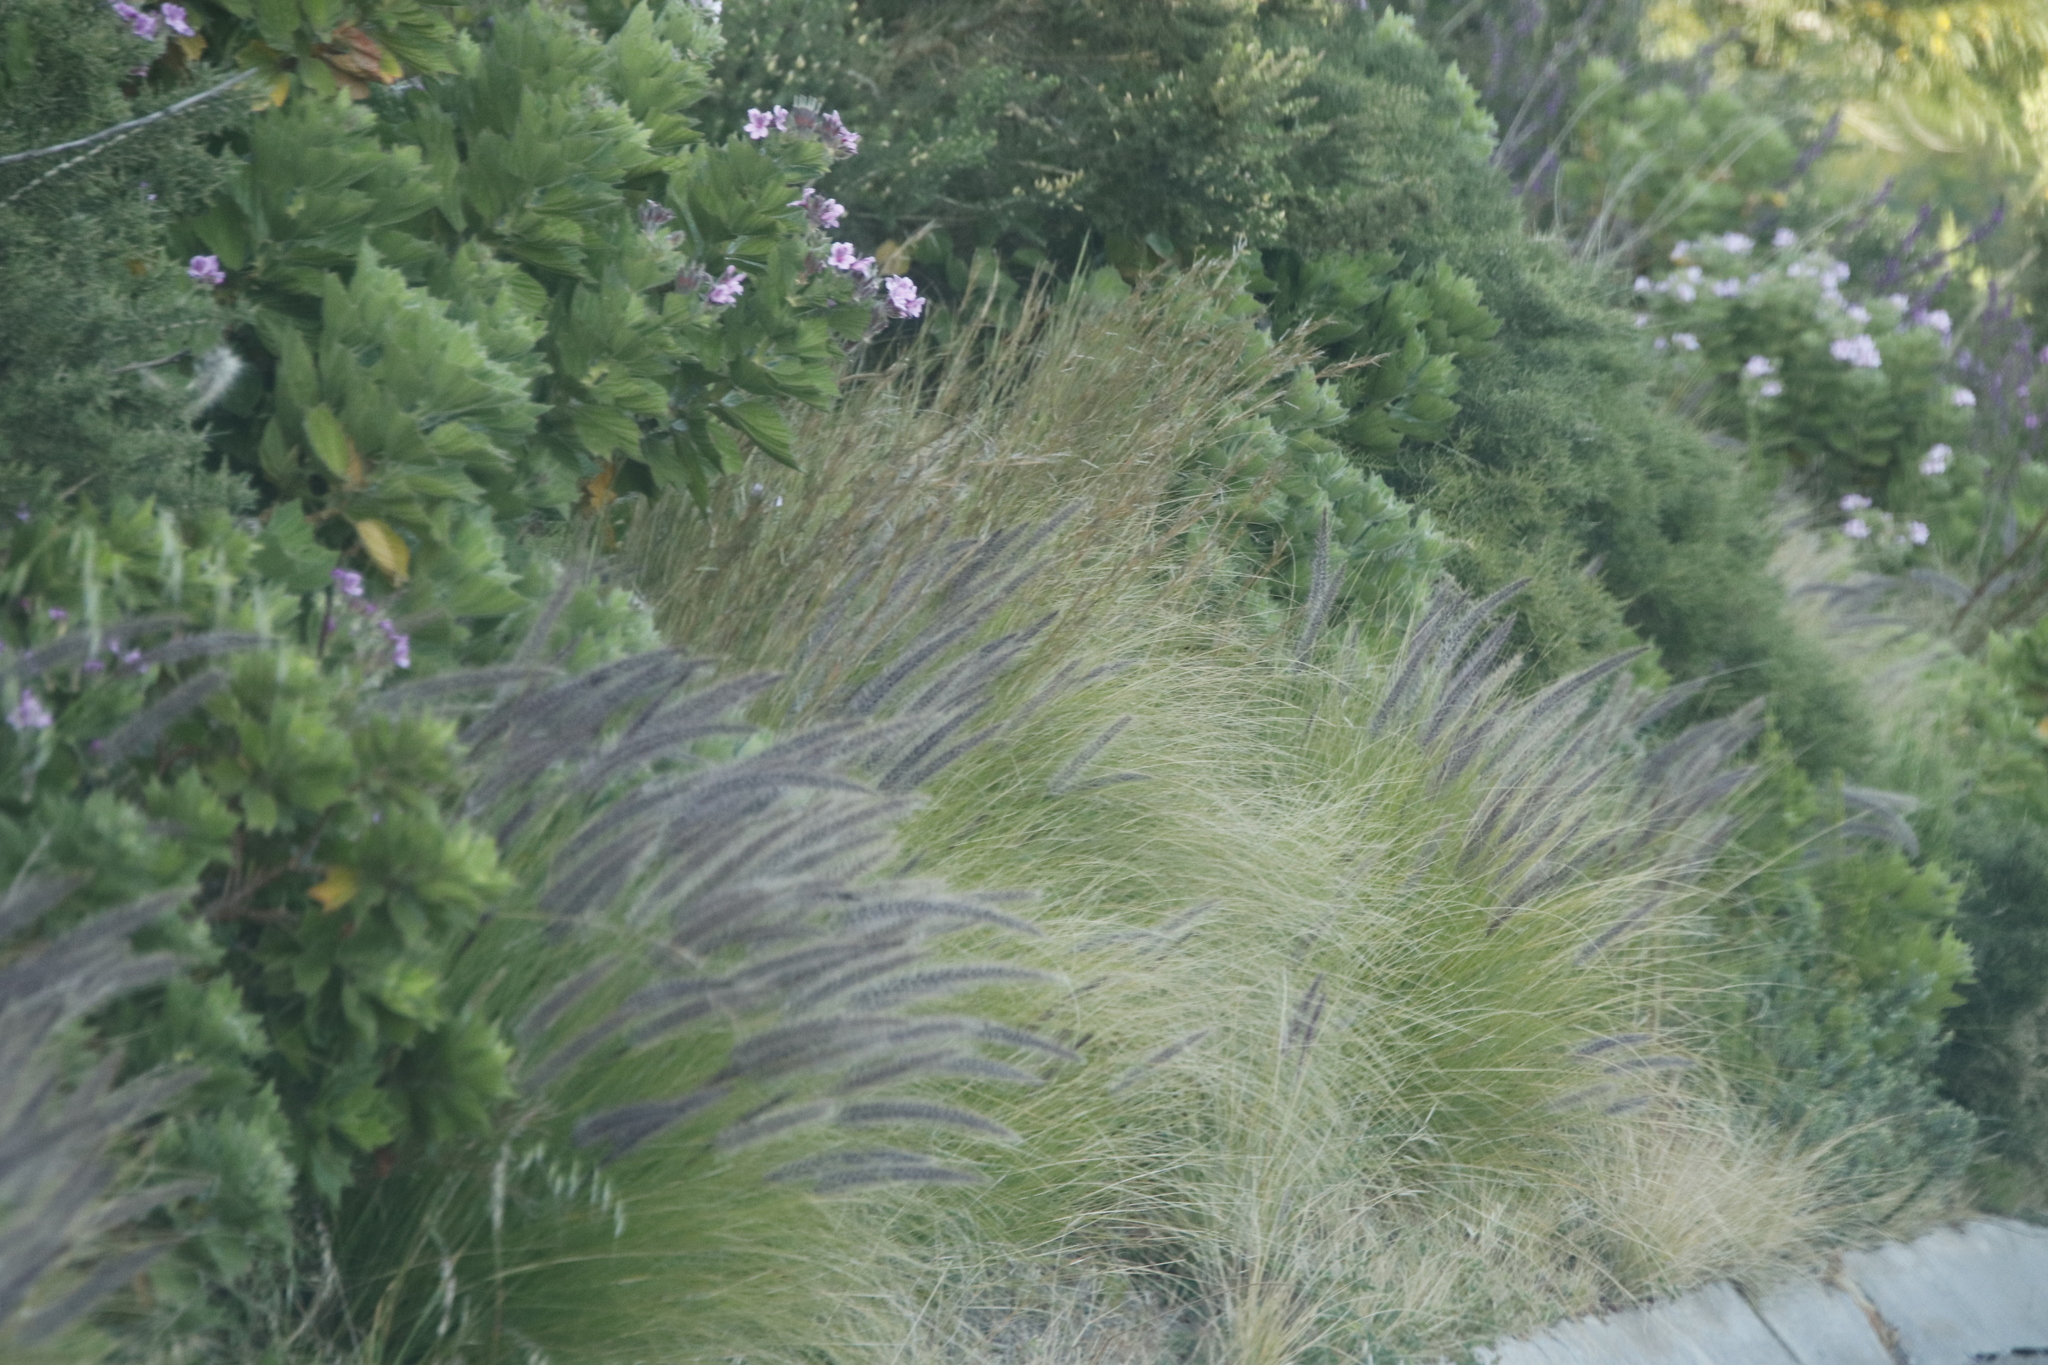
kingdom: Plantae
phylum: Tracheophyta
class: Liliopsida
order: Poales
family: Poaceae
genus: Cenchrus
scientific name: Cenchrus setaceus
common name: Crimson fountaingrass
